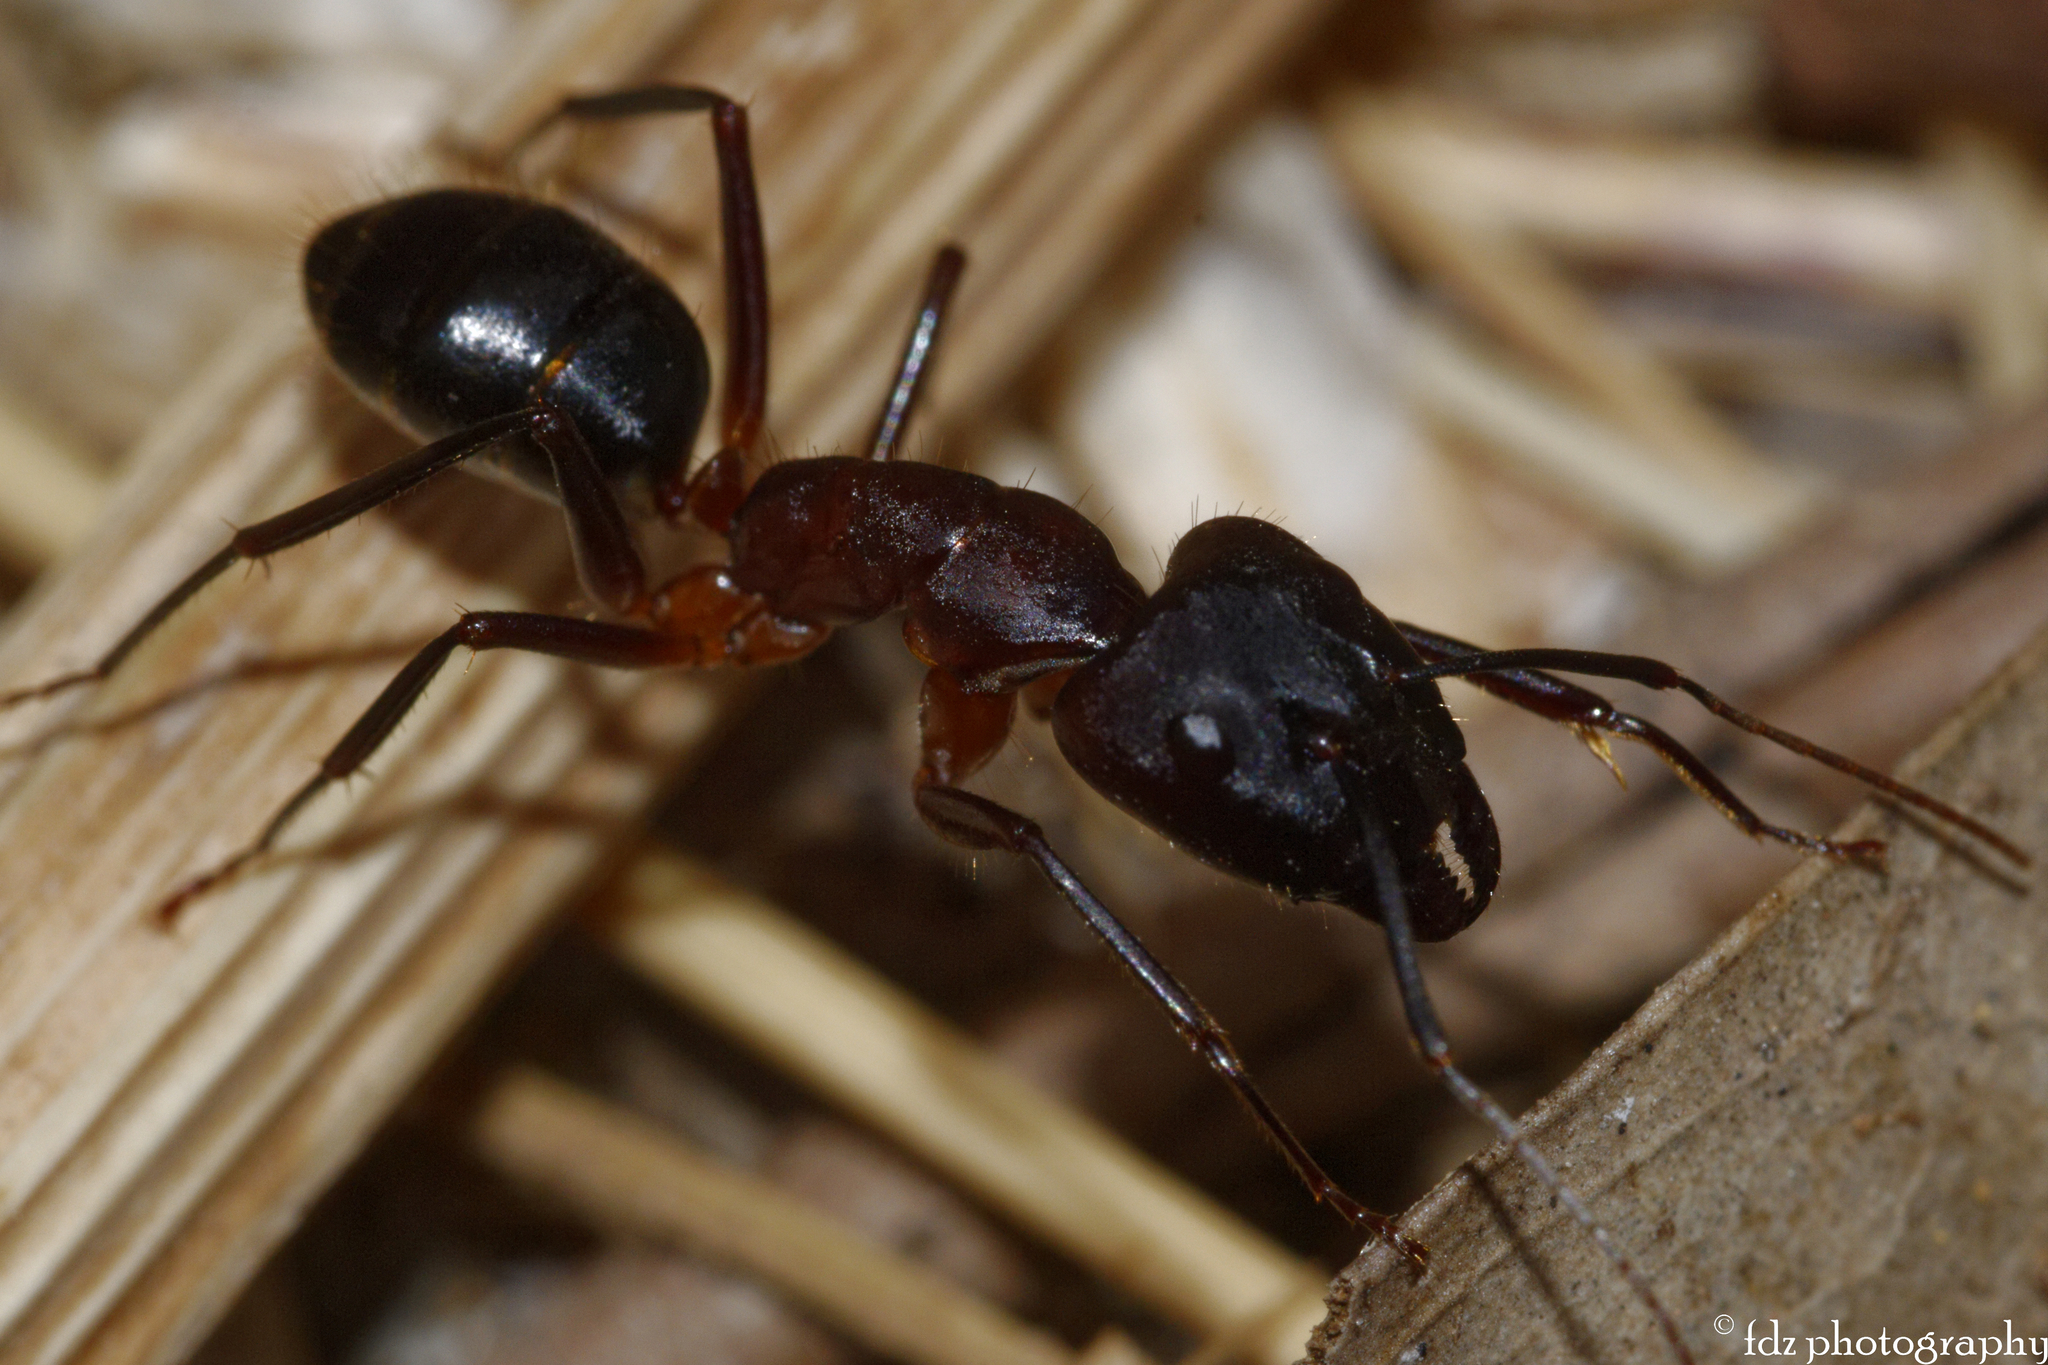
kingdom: Animalia
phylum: Arthropoda
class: Insecta
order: Hymenoptera
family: Formicidae
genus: Camponotus
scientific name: Camponotus barbaricus
